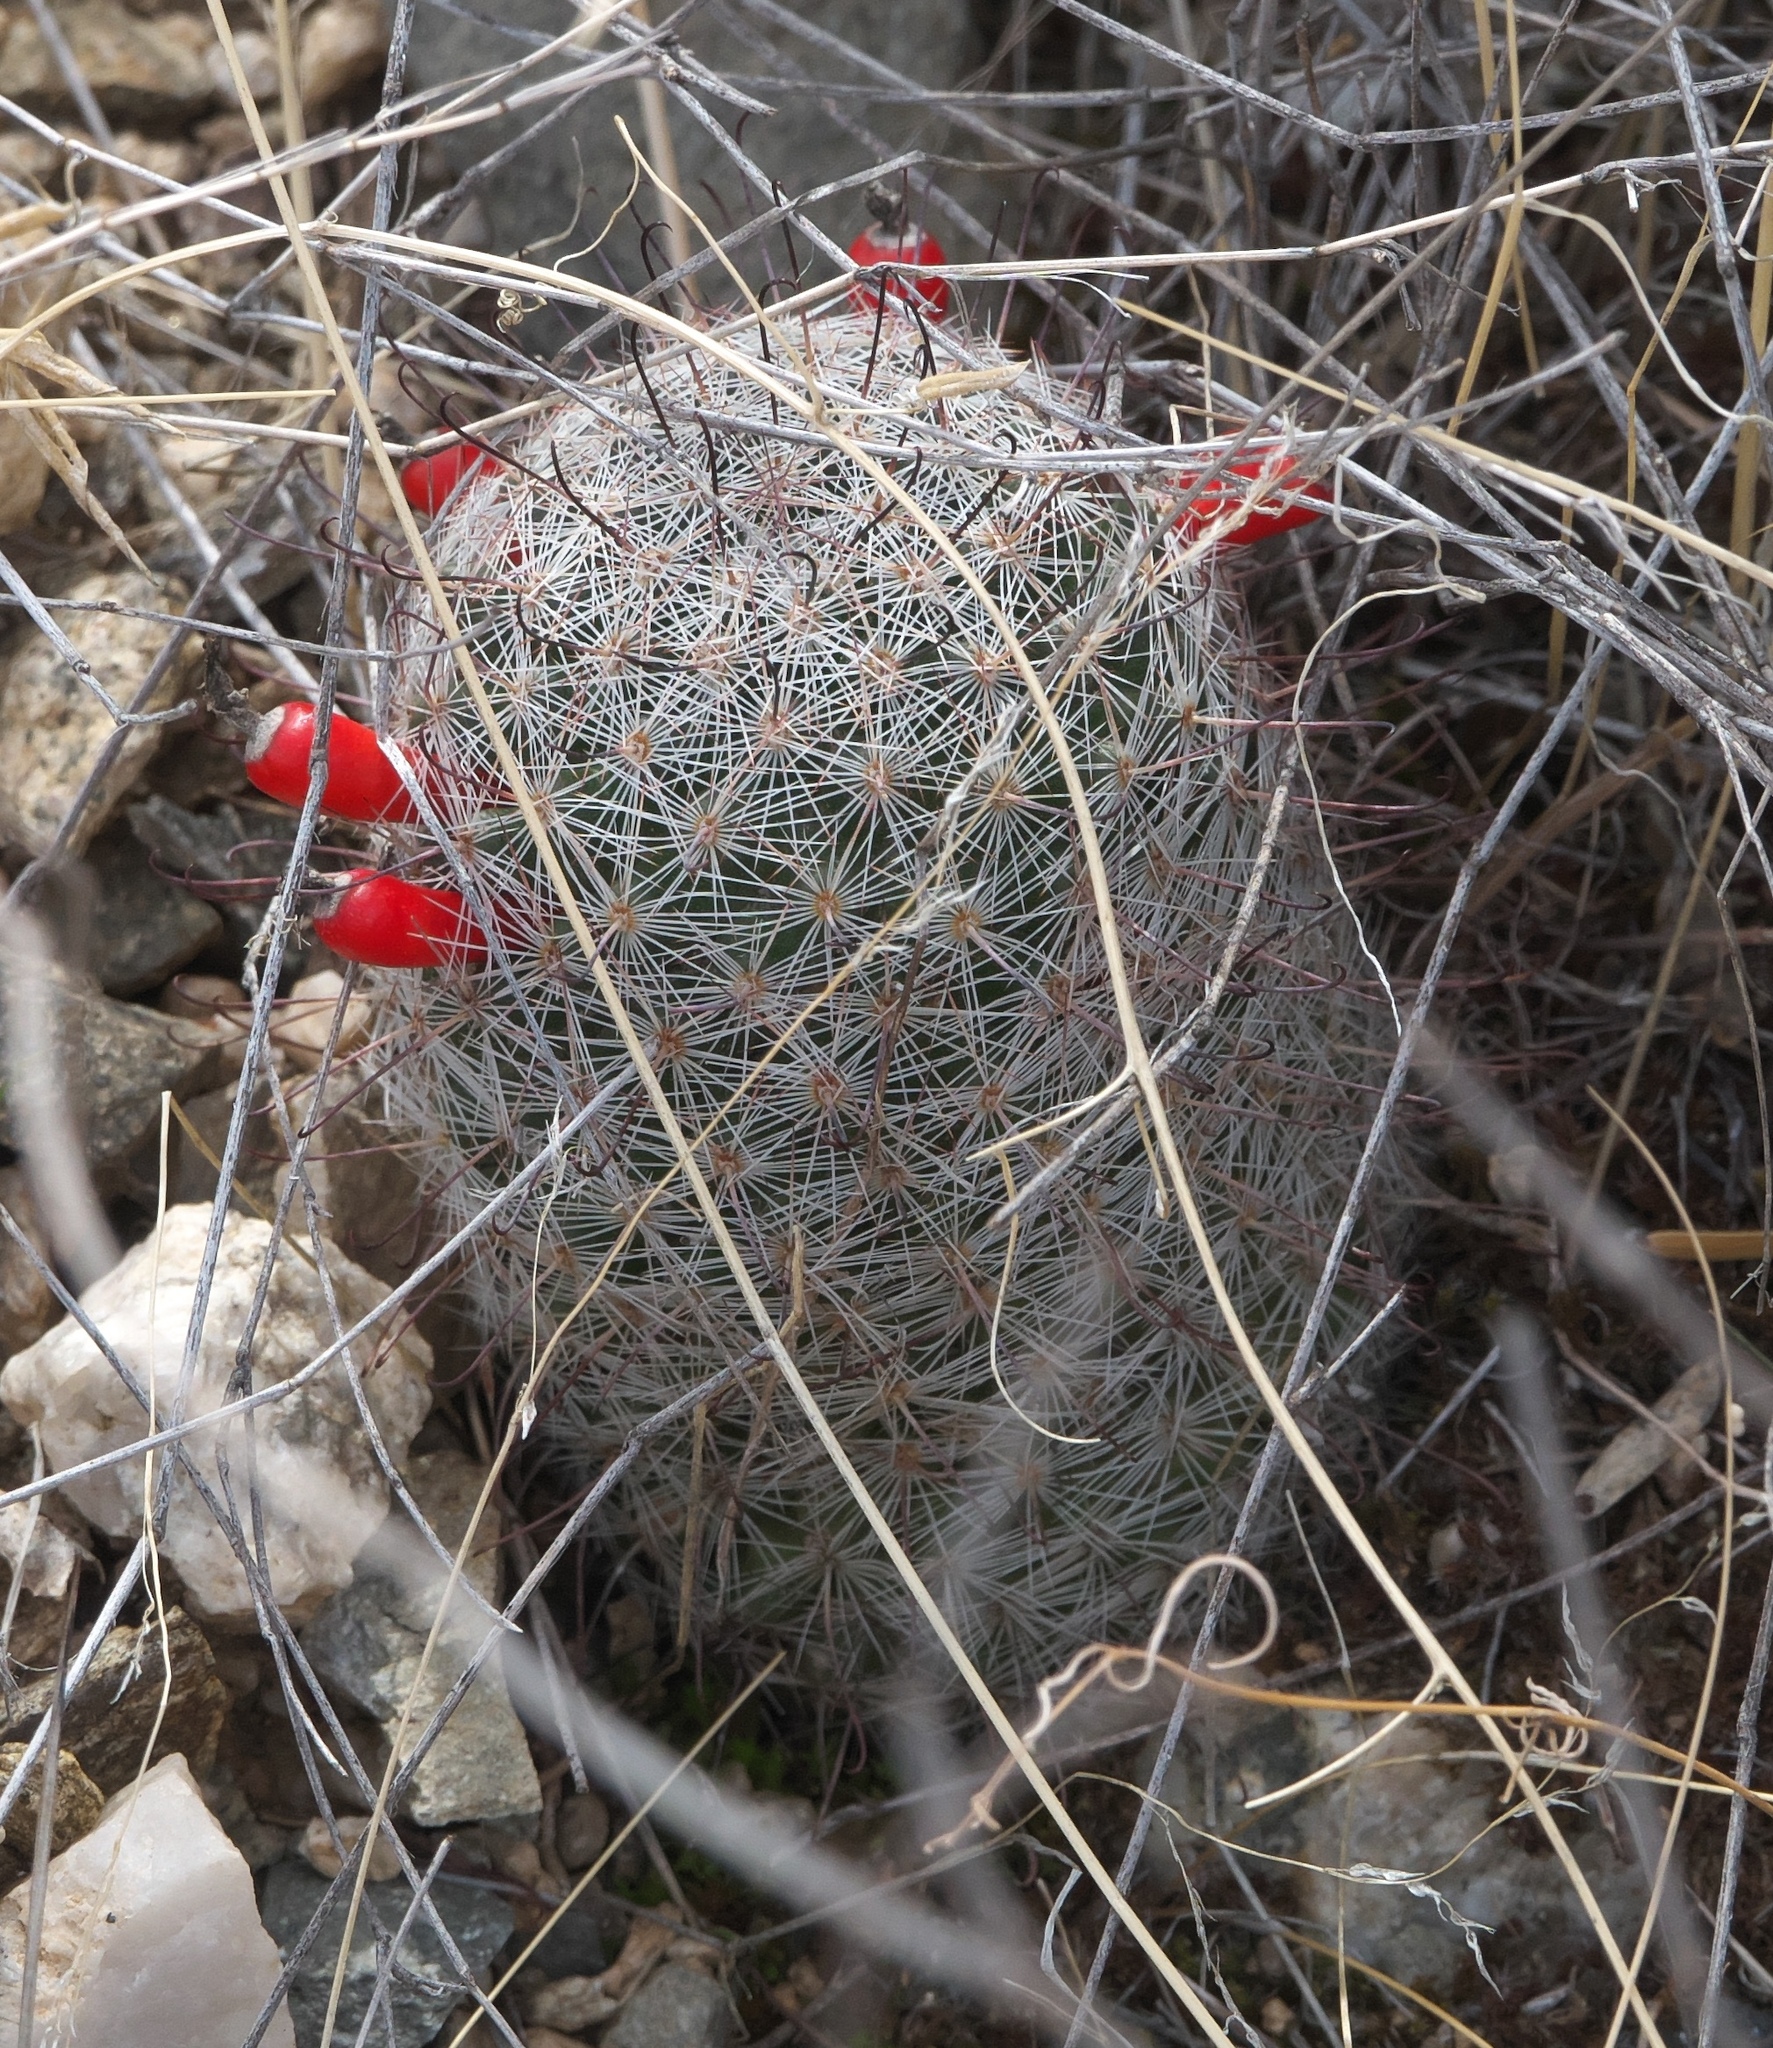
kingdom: Plantae
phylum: Tracheophyta
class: Magnoliopsida
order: Caryophyllales
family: Cactaceae
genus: Cochemiea
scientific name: Cochemiea grahamii
